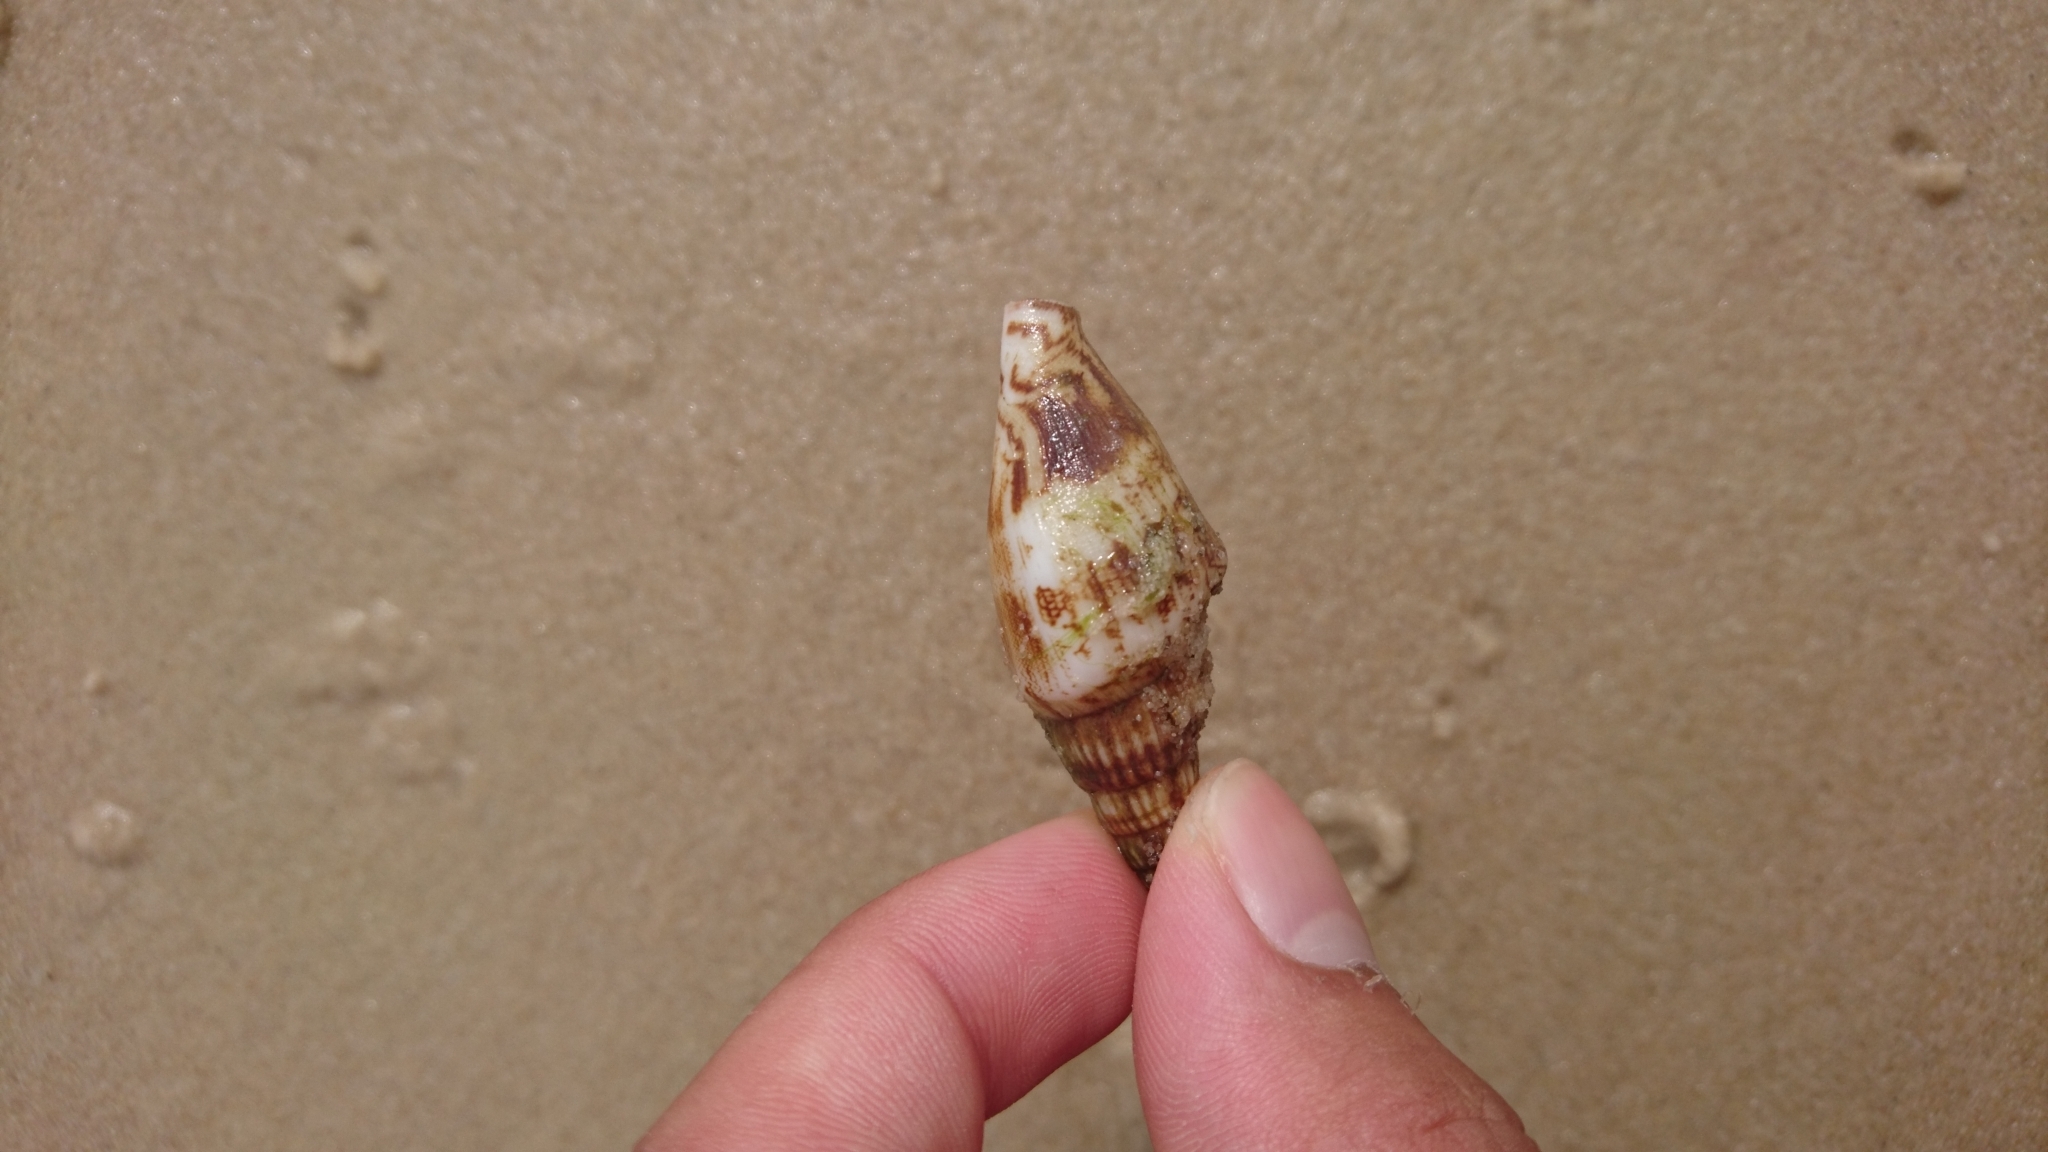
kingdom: Animalia
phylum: Mollusca
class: Gastropoda
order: Littorinimorpha
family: Strombidae
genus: Doxander
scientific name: Doxander
